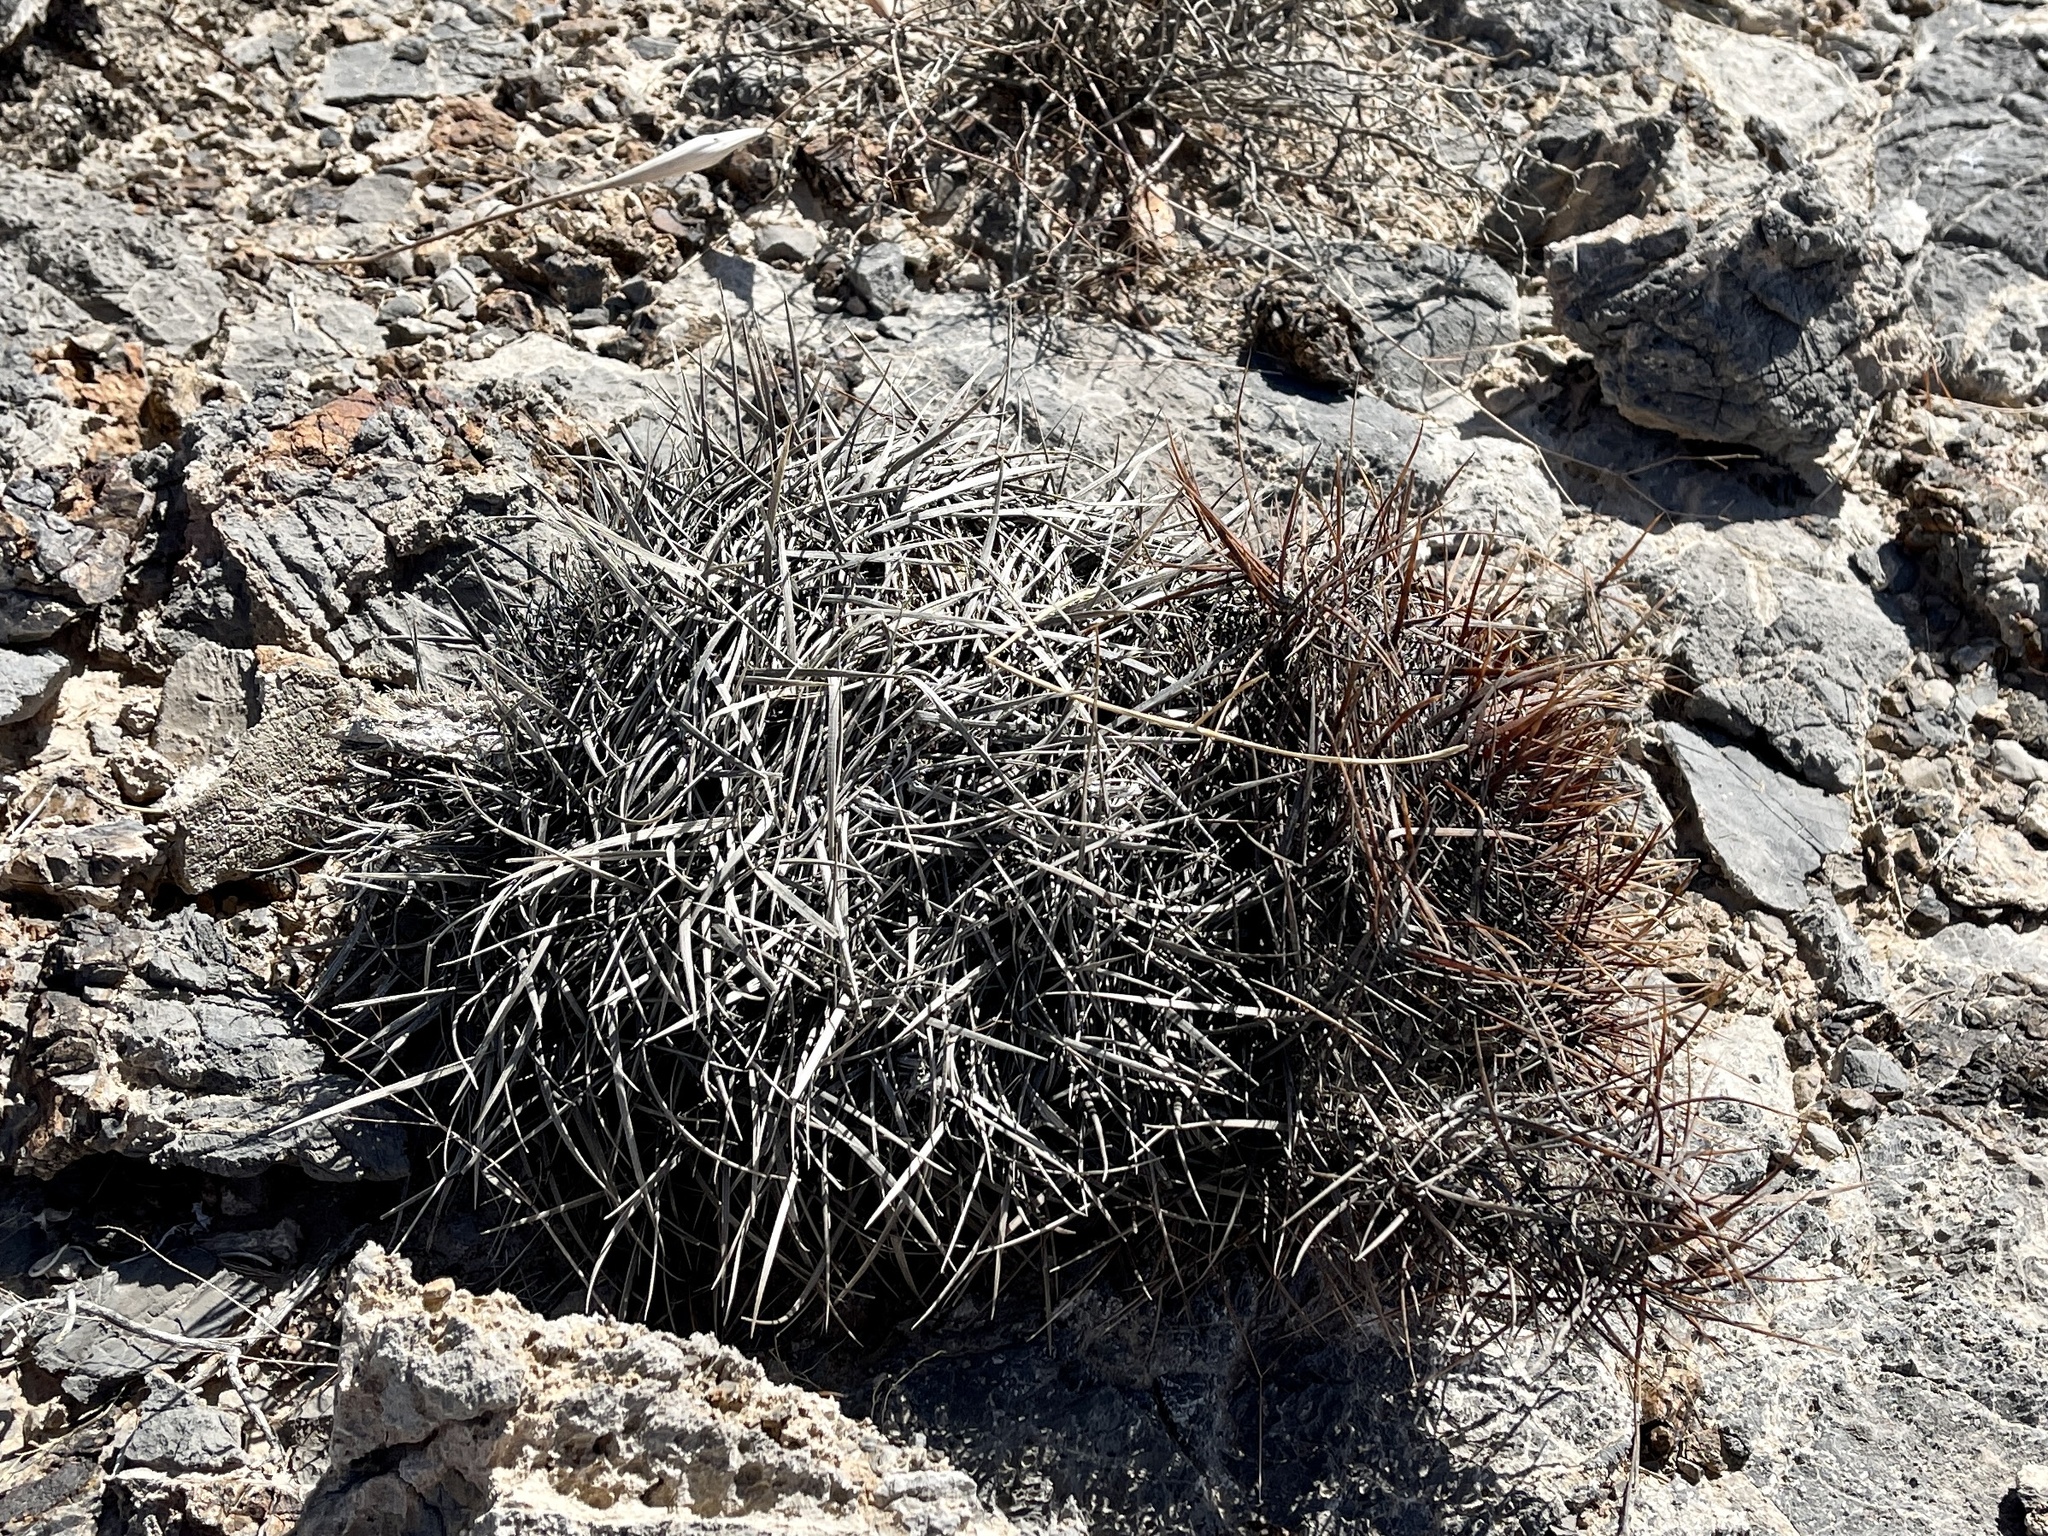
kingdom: Plantae
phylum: Tracheophyta
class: Magnoliopsida
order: Caryophyllales
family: Cactaceae
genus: Ferocactus
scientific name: Ferocactus cylindraceus
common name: California barrel cactus
